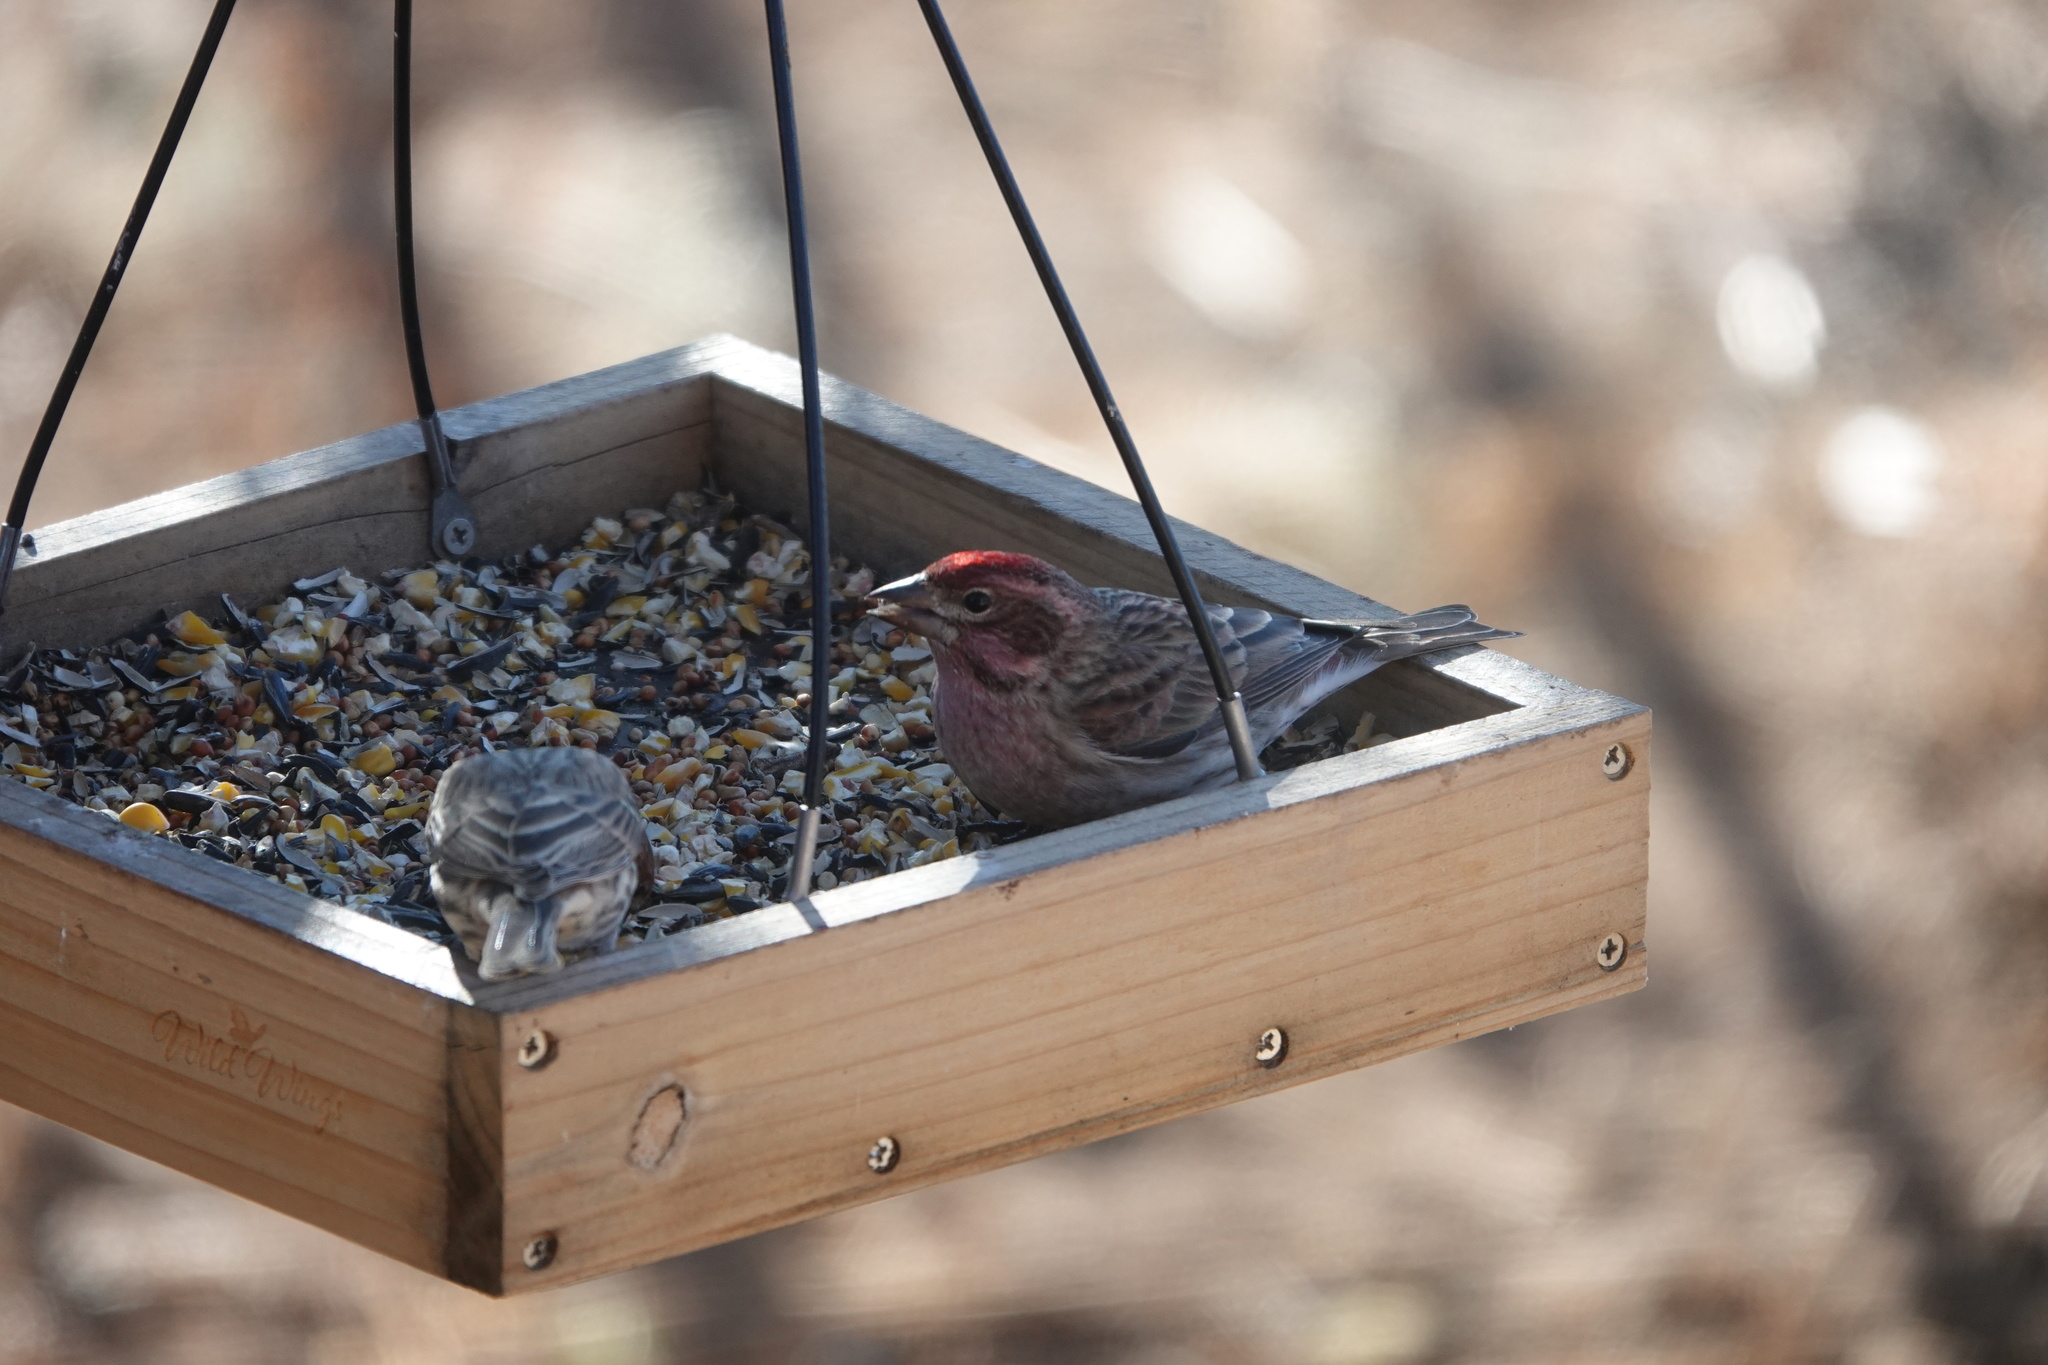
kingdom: Animalia
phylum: Chordata
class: Aves
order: Passeriformes
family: Fringillidae
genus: Haemorhous
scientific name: Haemorhous cassinii
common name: Cassin's finch
